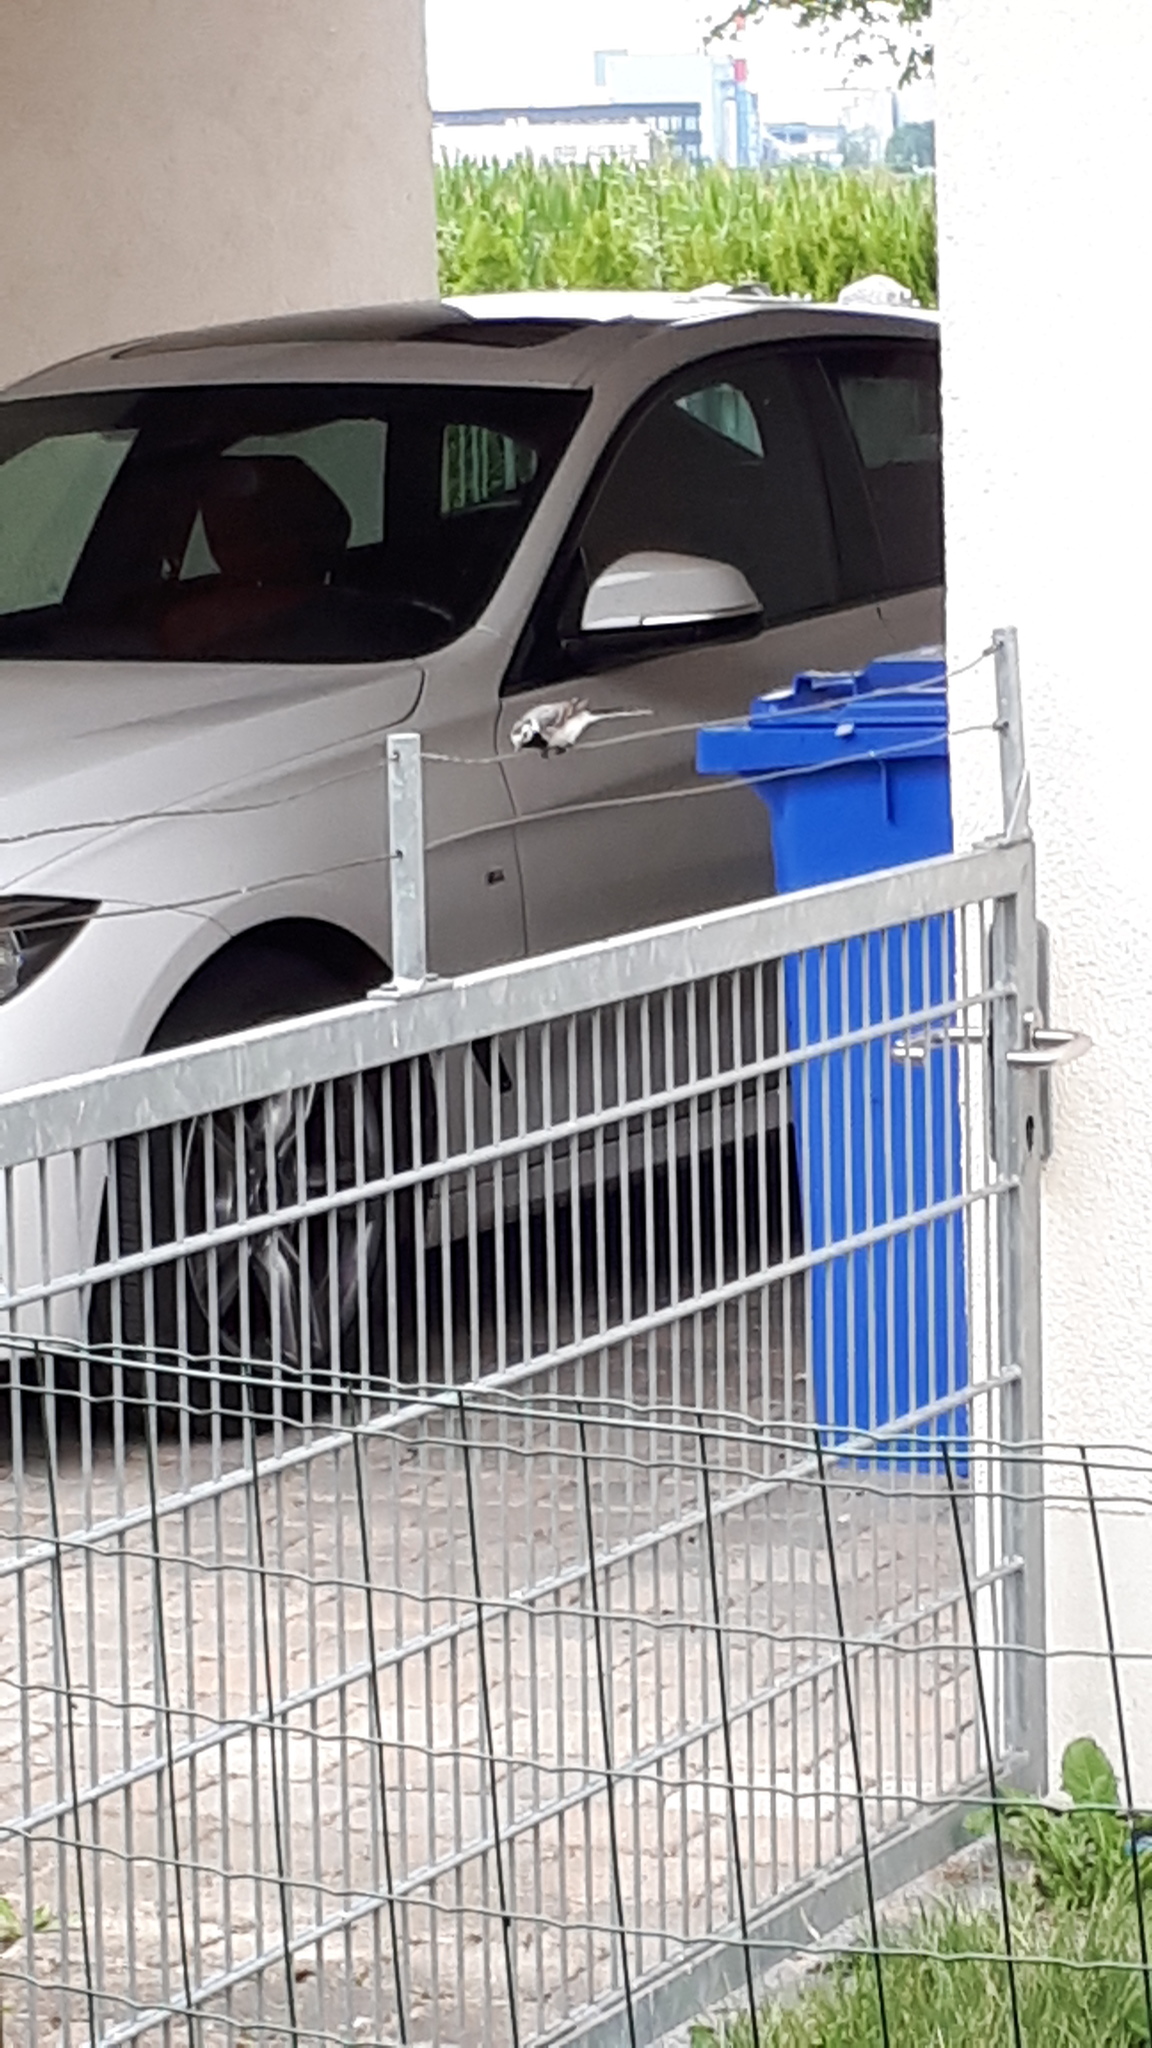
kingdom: Animalia
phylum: Chordata
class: Aves
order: Passeriformes
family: Motacillidae
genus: Motacilla
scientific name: Motacilla alba
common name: White wagtail
